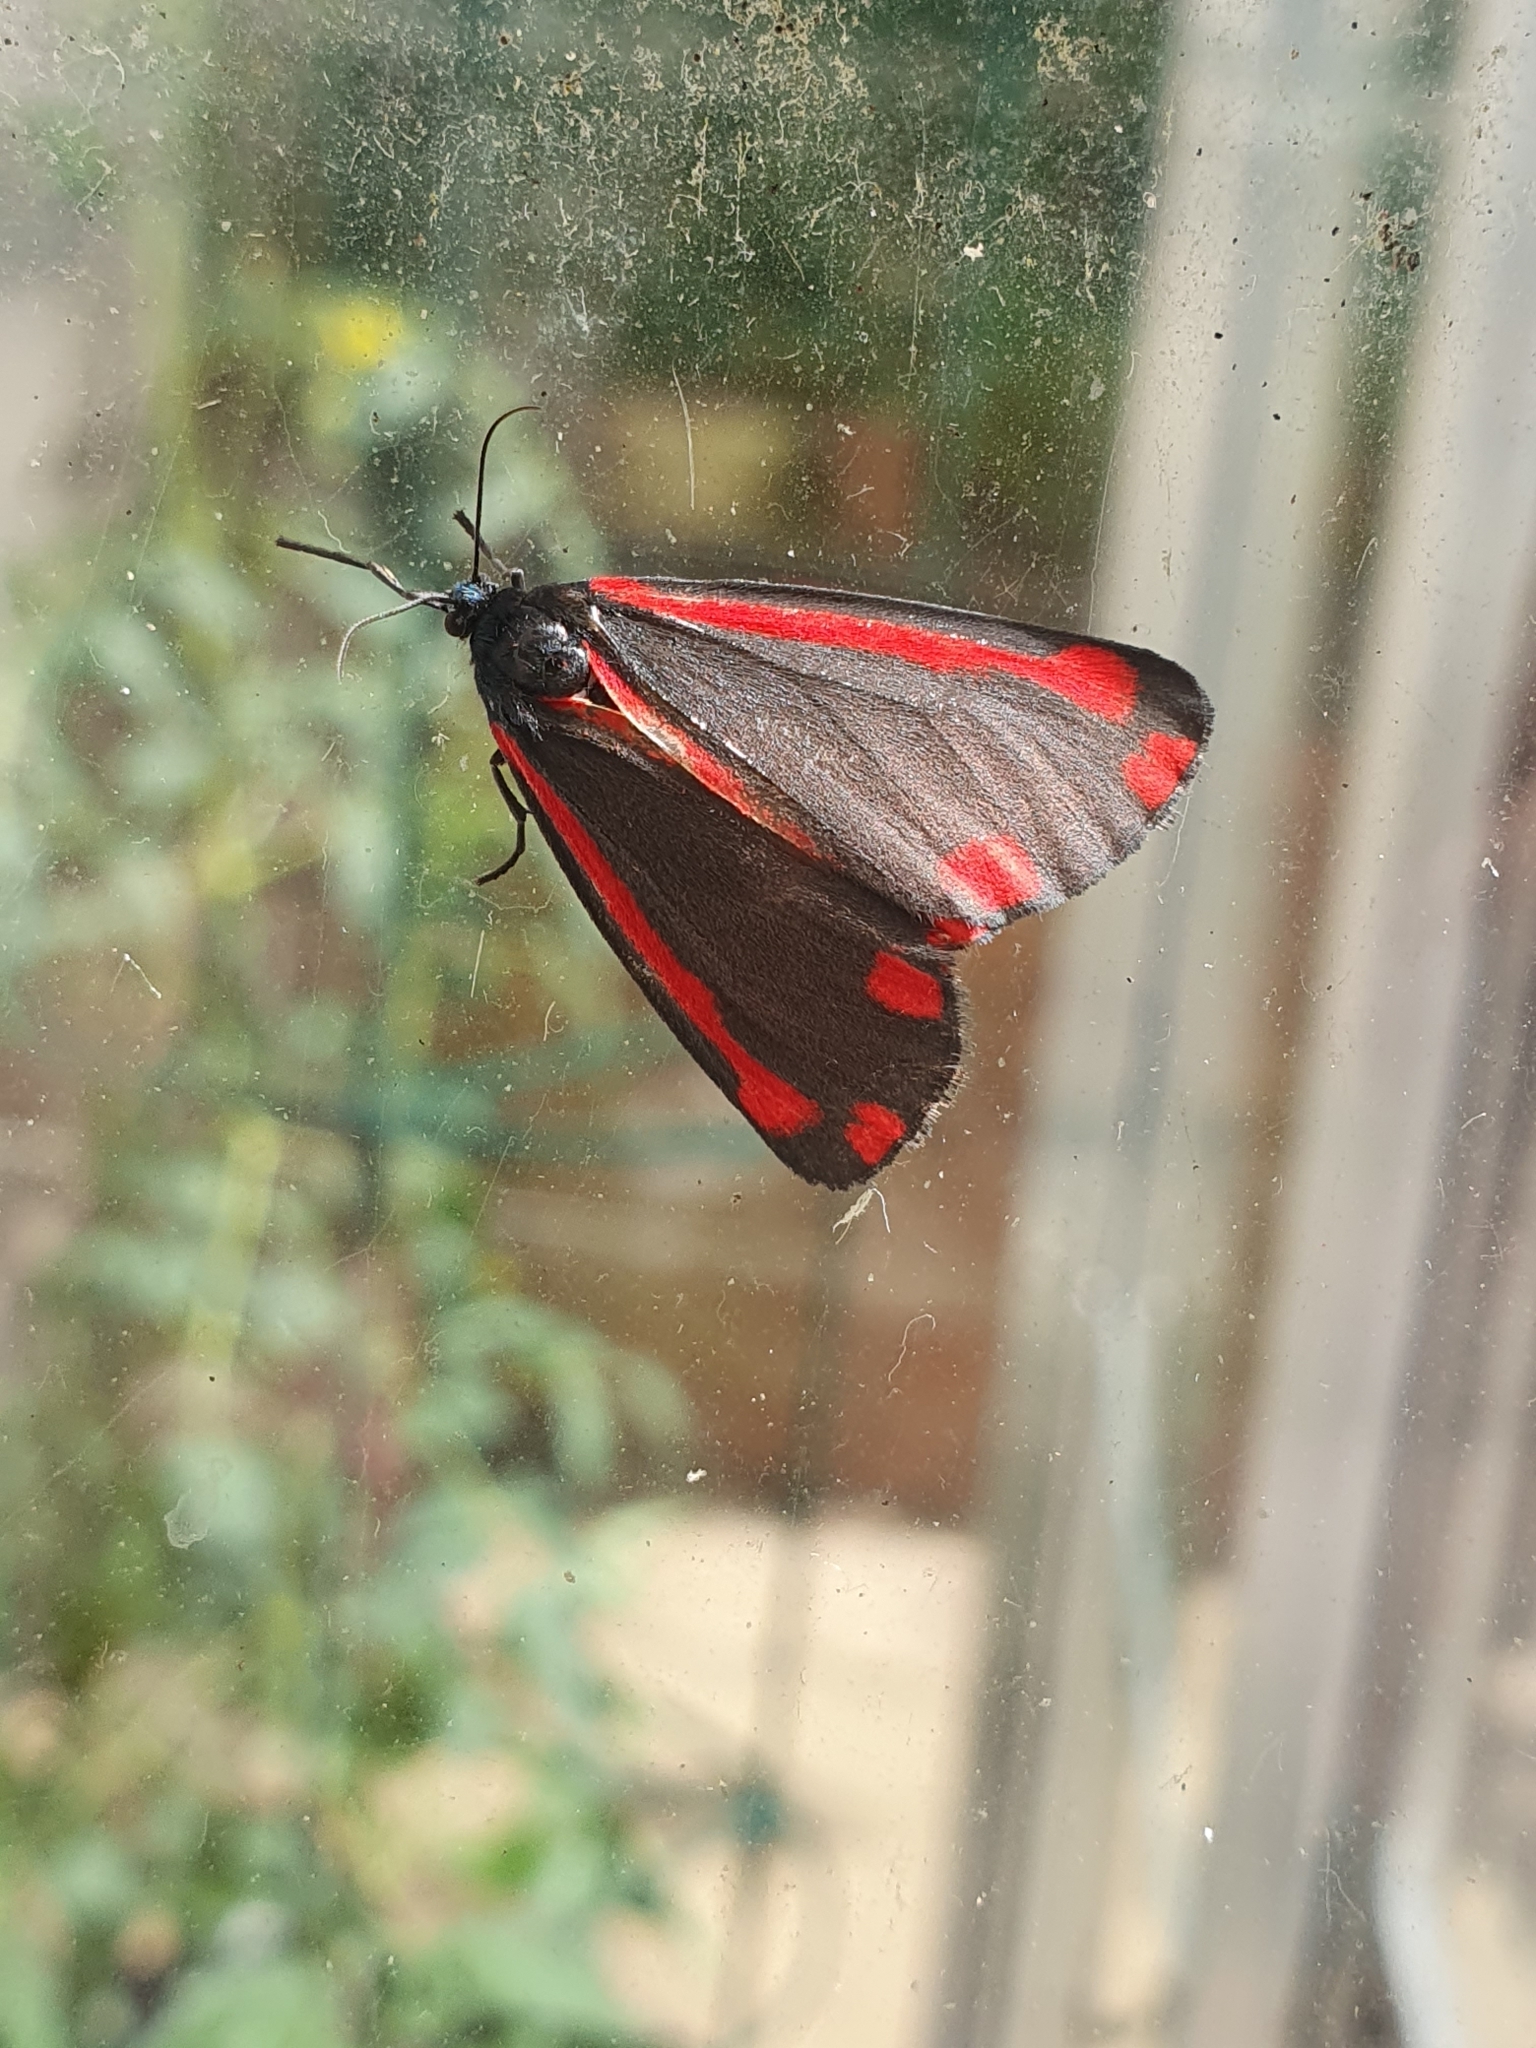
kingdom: Animalia
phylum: Arthropoda
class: Insecta
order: Lepidoptera
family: Erebidae
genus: Tyria
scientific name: Tyria jacobaeae
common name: Cinnabar
